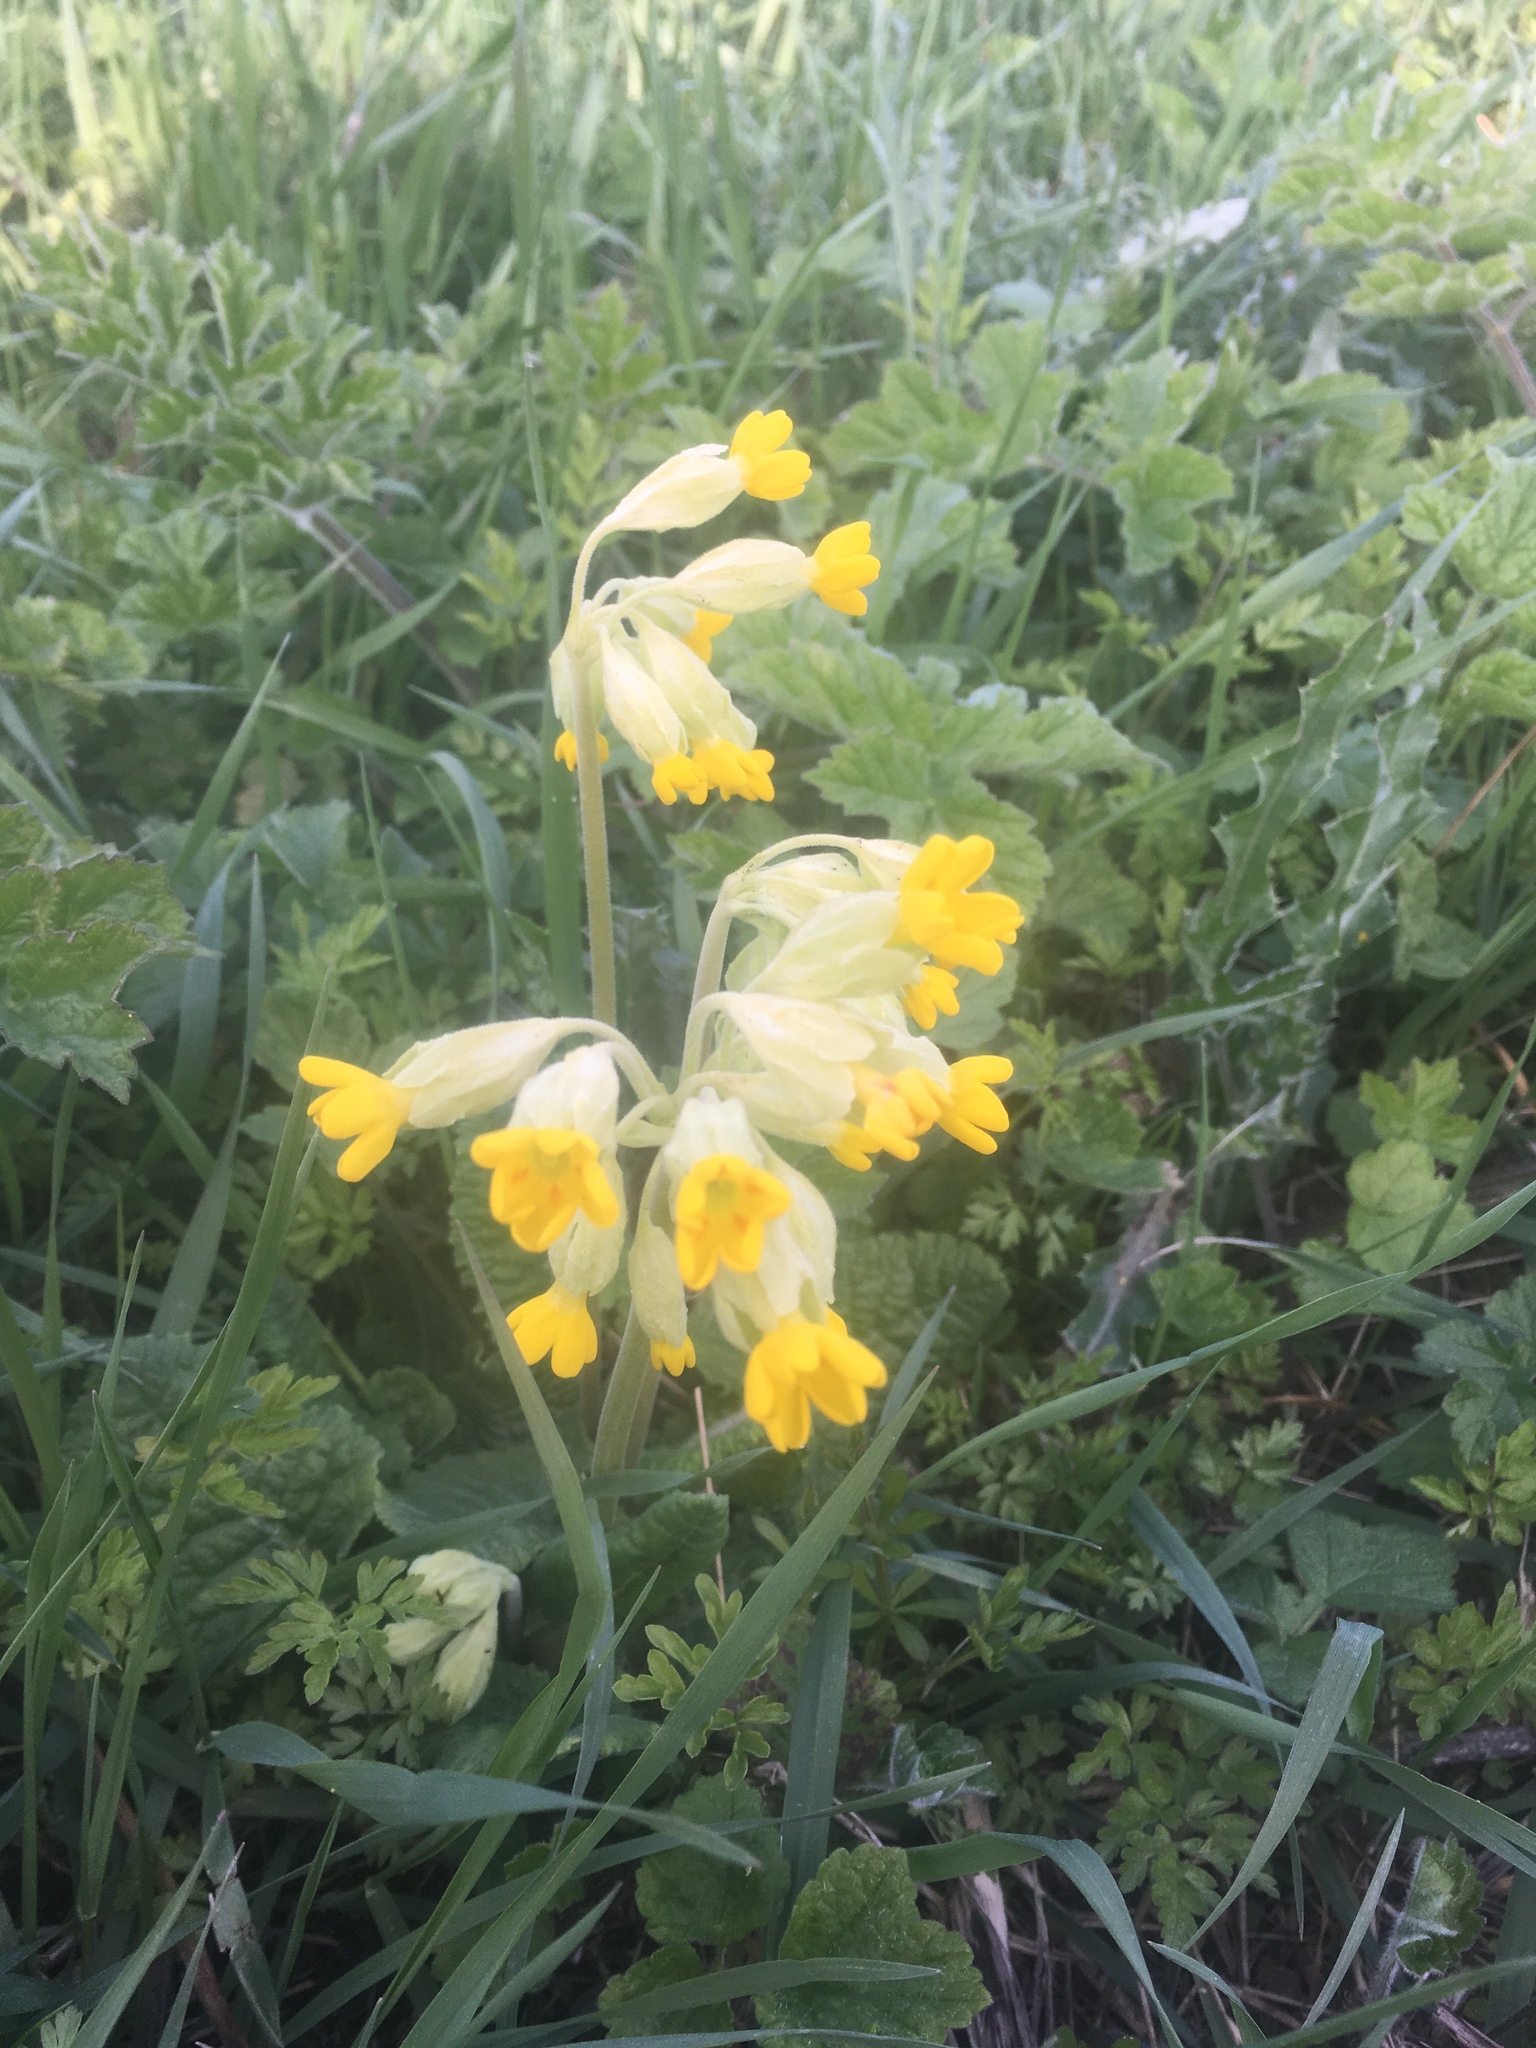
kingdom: Plantae
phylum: Tracheophyta
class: Magnoliopsida
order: Ericales
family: Primulaceae
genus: Primula
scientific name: Primula veris
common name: Cowslip
